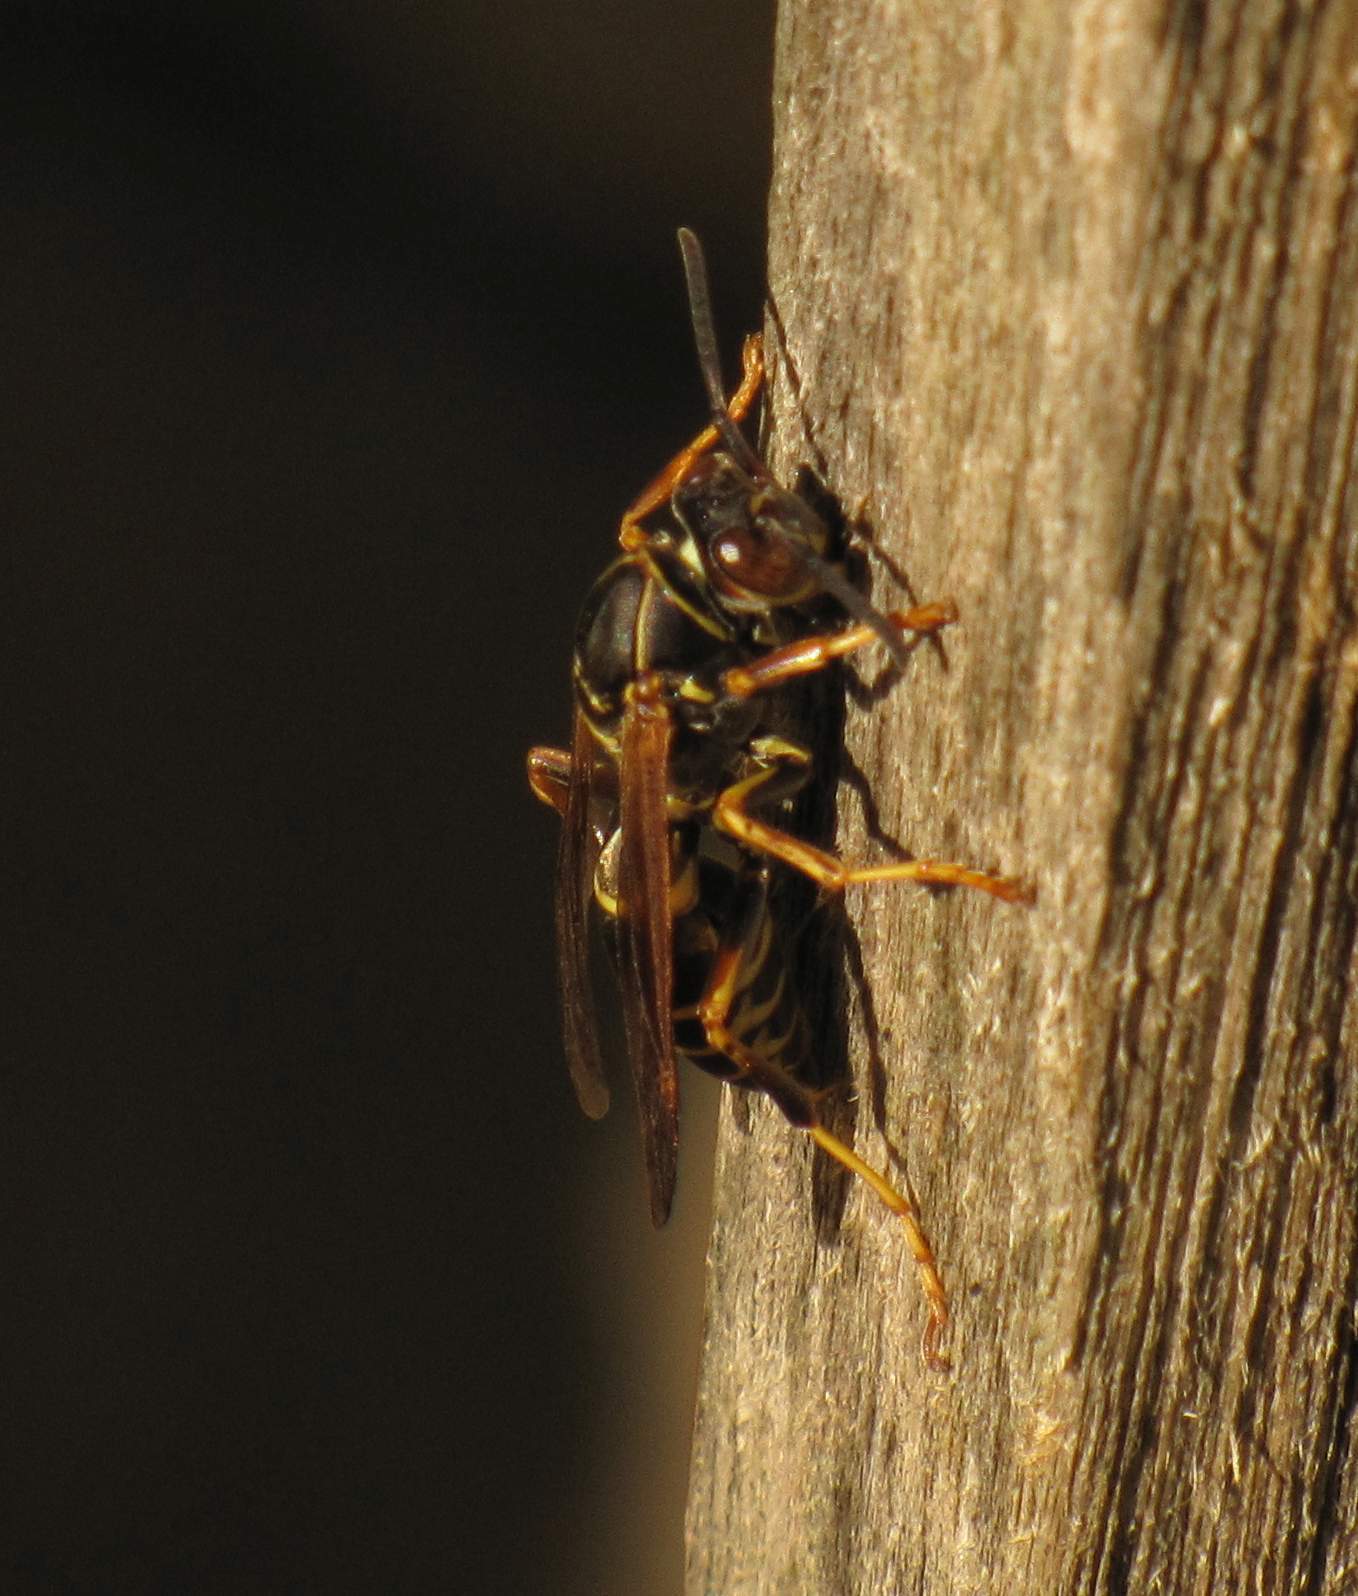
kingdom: Animalia
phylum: Arthropoda
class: Insecta
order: Hymenoptera
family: Eumenidae
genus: Polistes
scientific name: Polistes fuscatus
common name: Dark paper wasp
